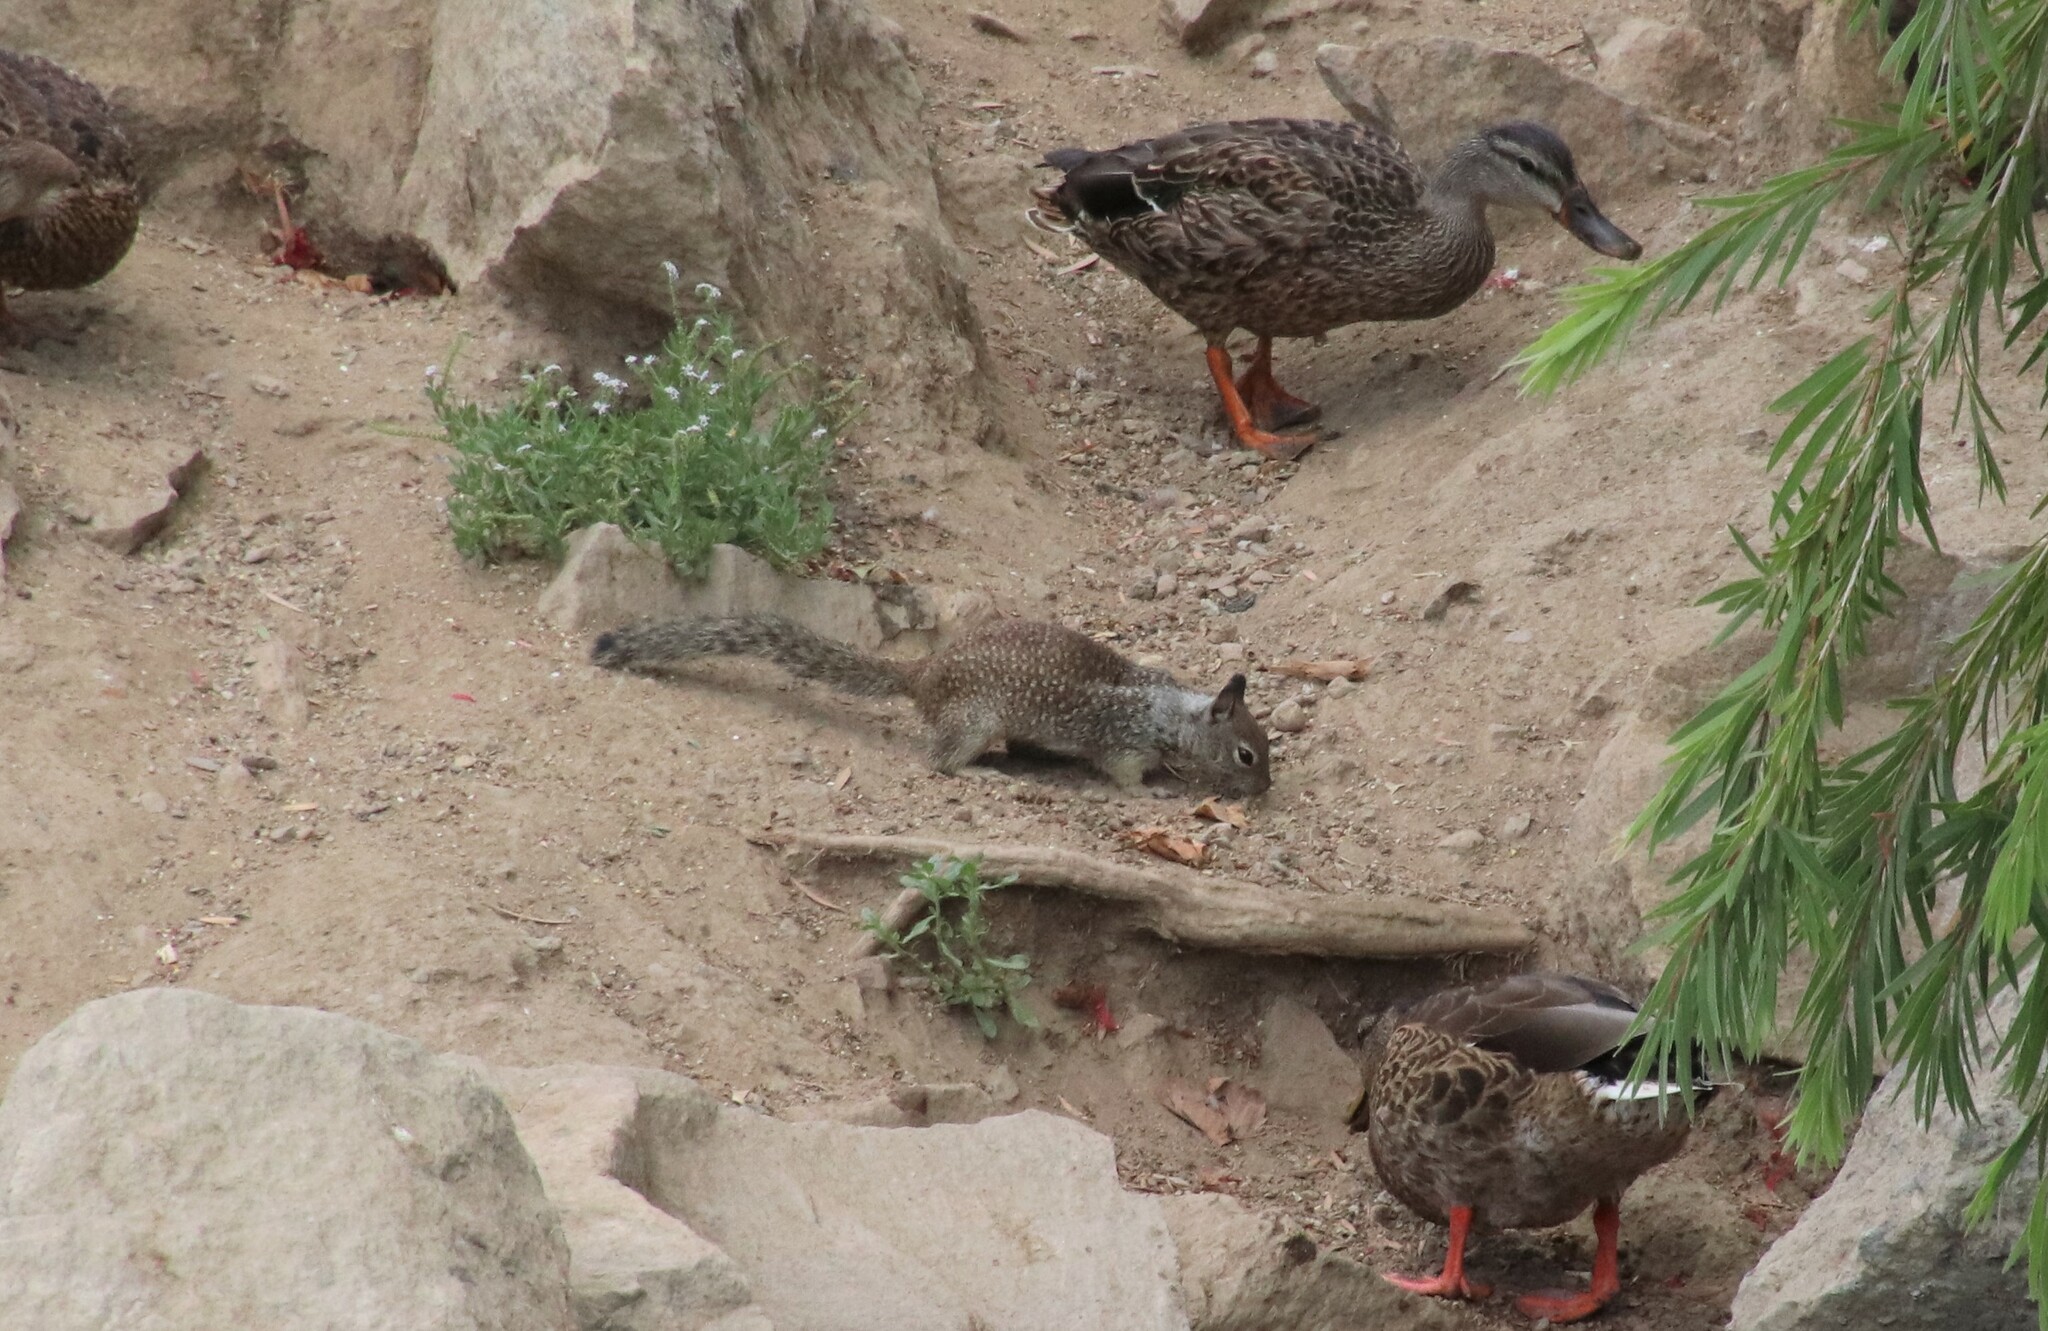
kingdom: Animalia
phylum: Chordata
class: Mammalia
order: Rodentia
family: Sciuridae
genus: Otospermophilus
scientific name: Otospermophilus beecheyi
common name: California ground squirrel
